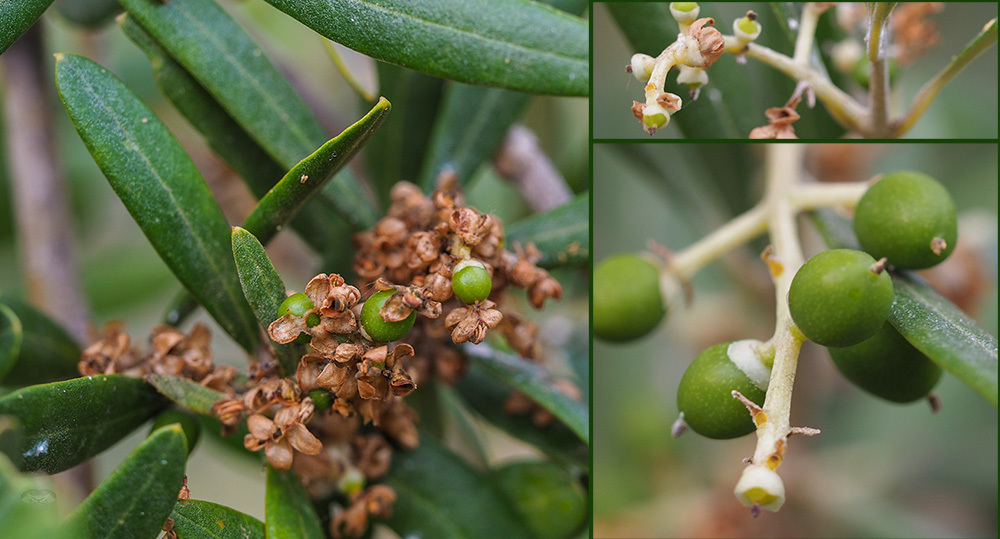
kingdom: Plantae
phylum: Tracheophyta
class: Magnoliopsida
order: Lamiales
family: Oleaceae
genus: Olea
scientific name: Olea europaea
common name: Olive
